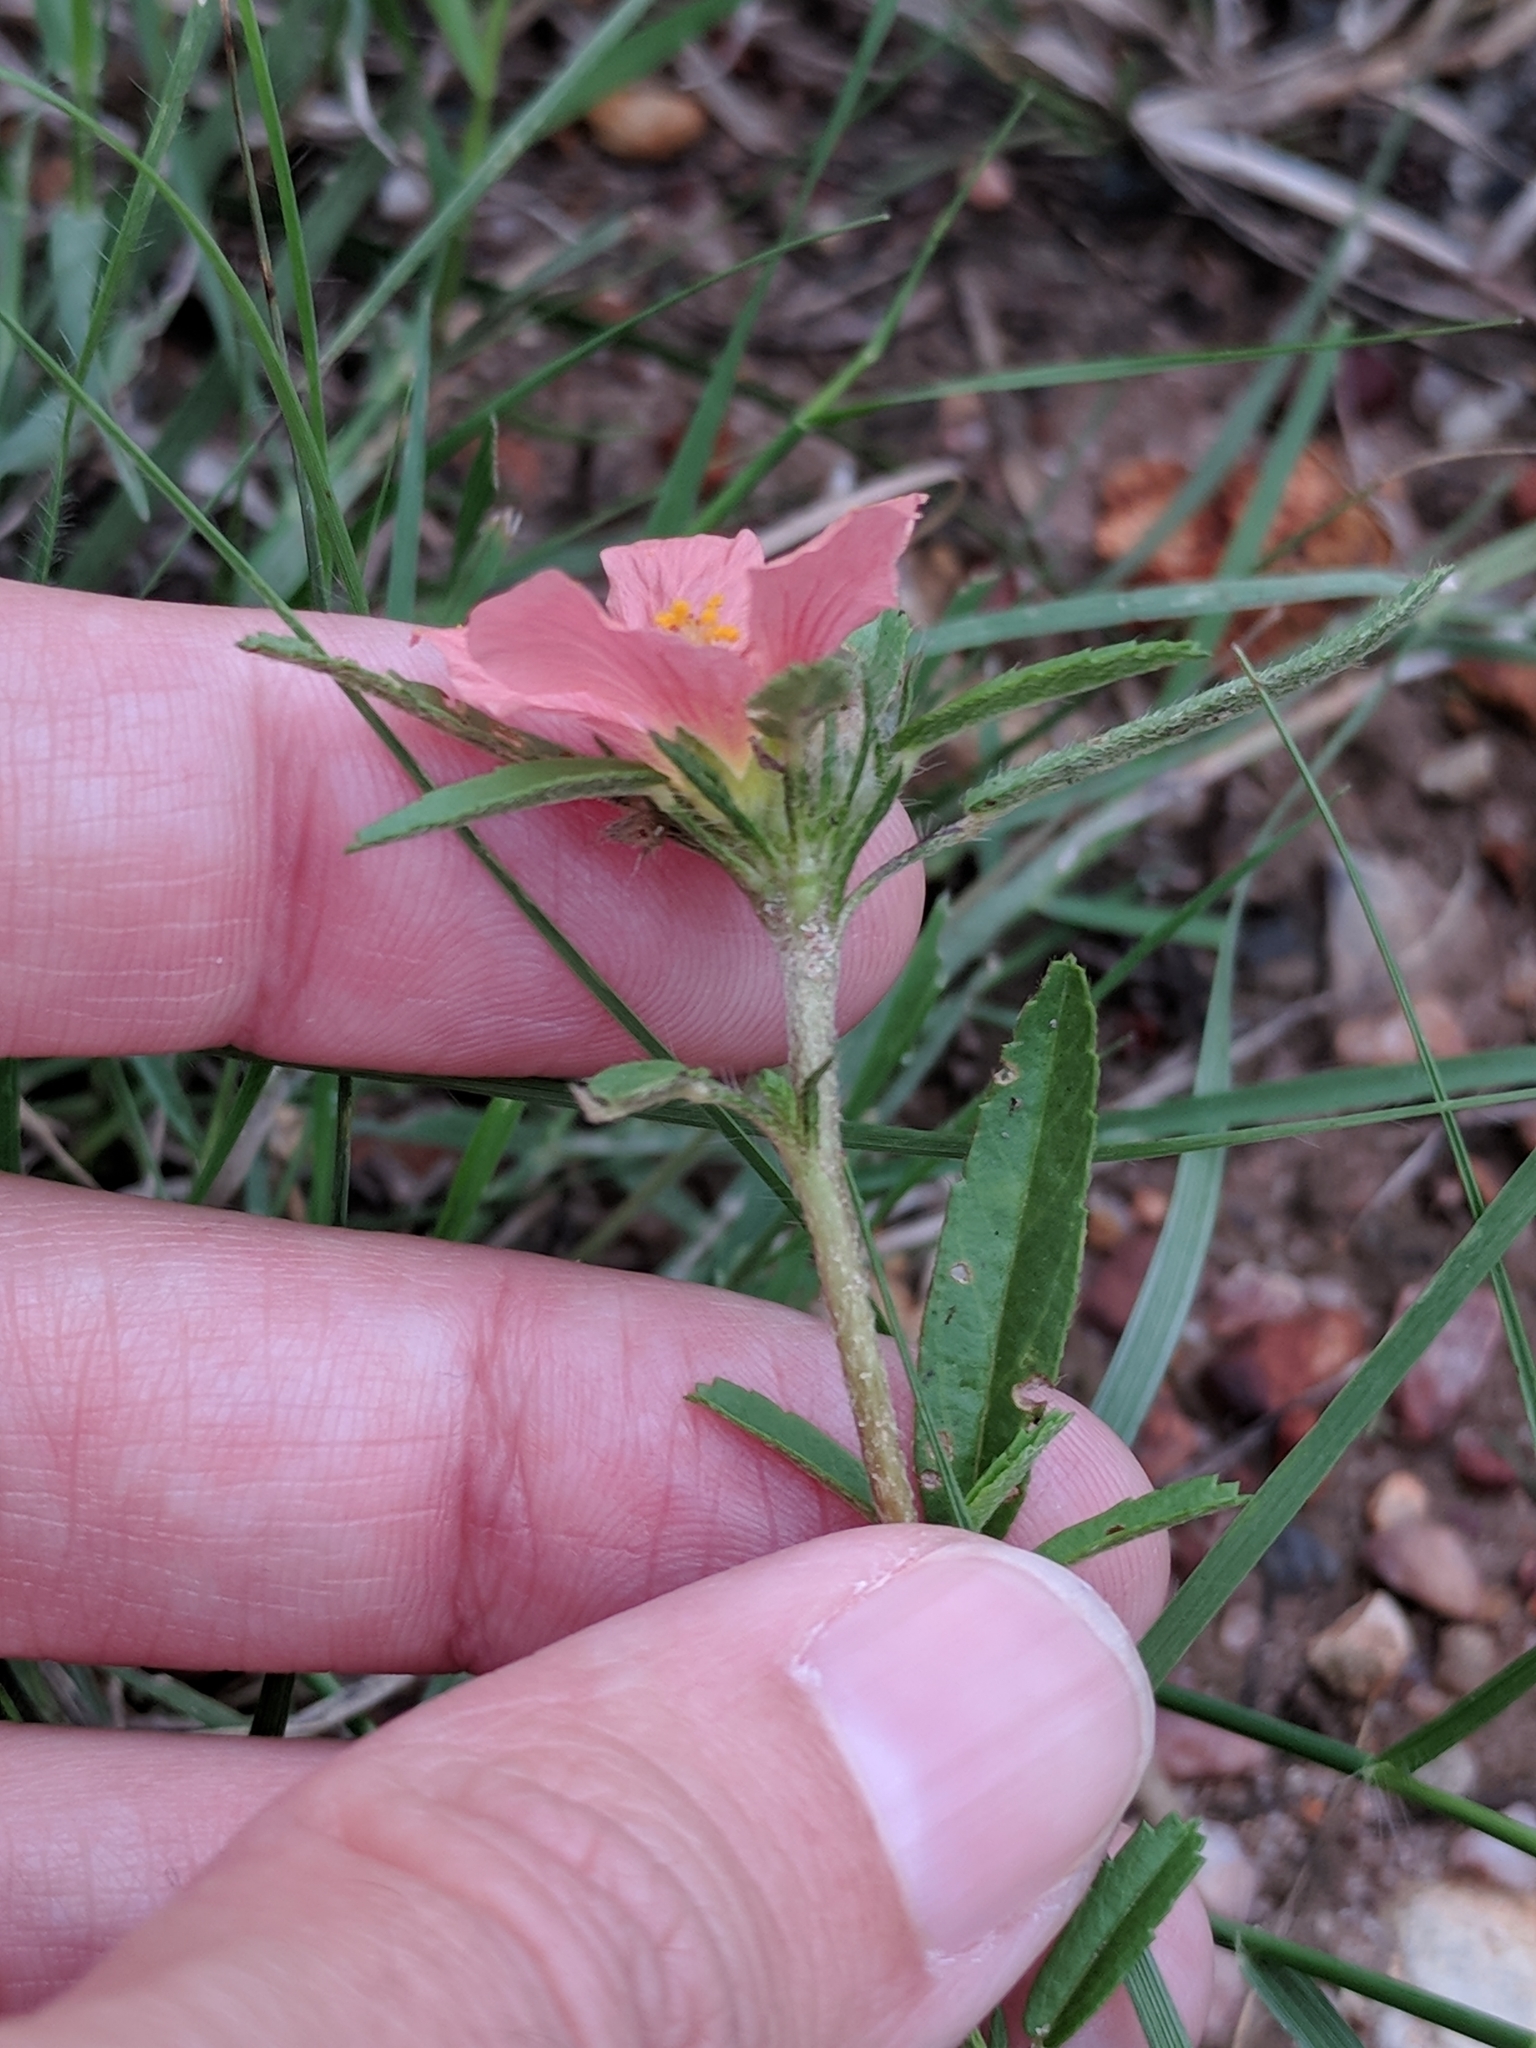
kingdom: Plantae
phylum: Tracheophyta
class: Magnoliopsida
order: Malvales
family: Malvaceae
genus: Sida
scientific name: Sida ciliaris
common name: Bracted fanpetals
